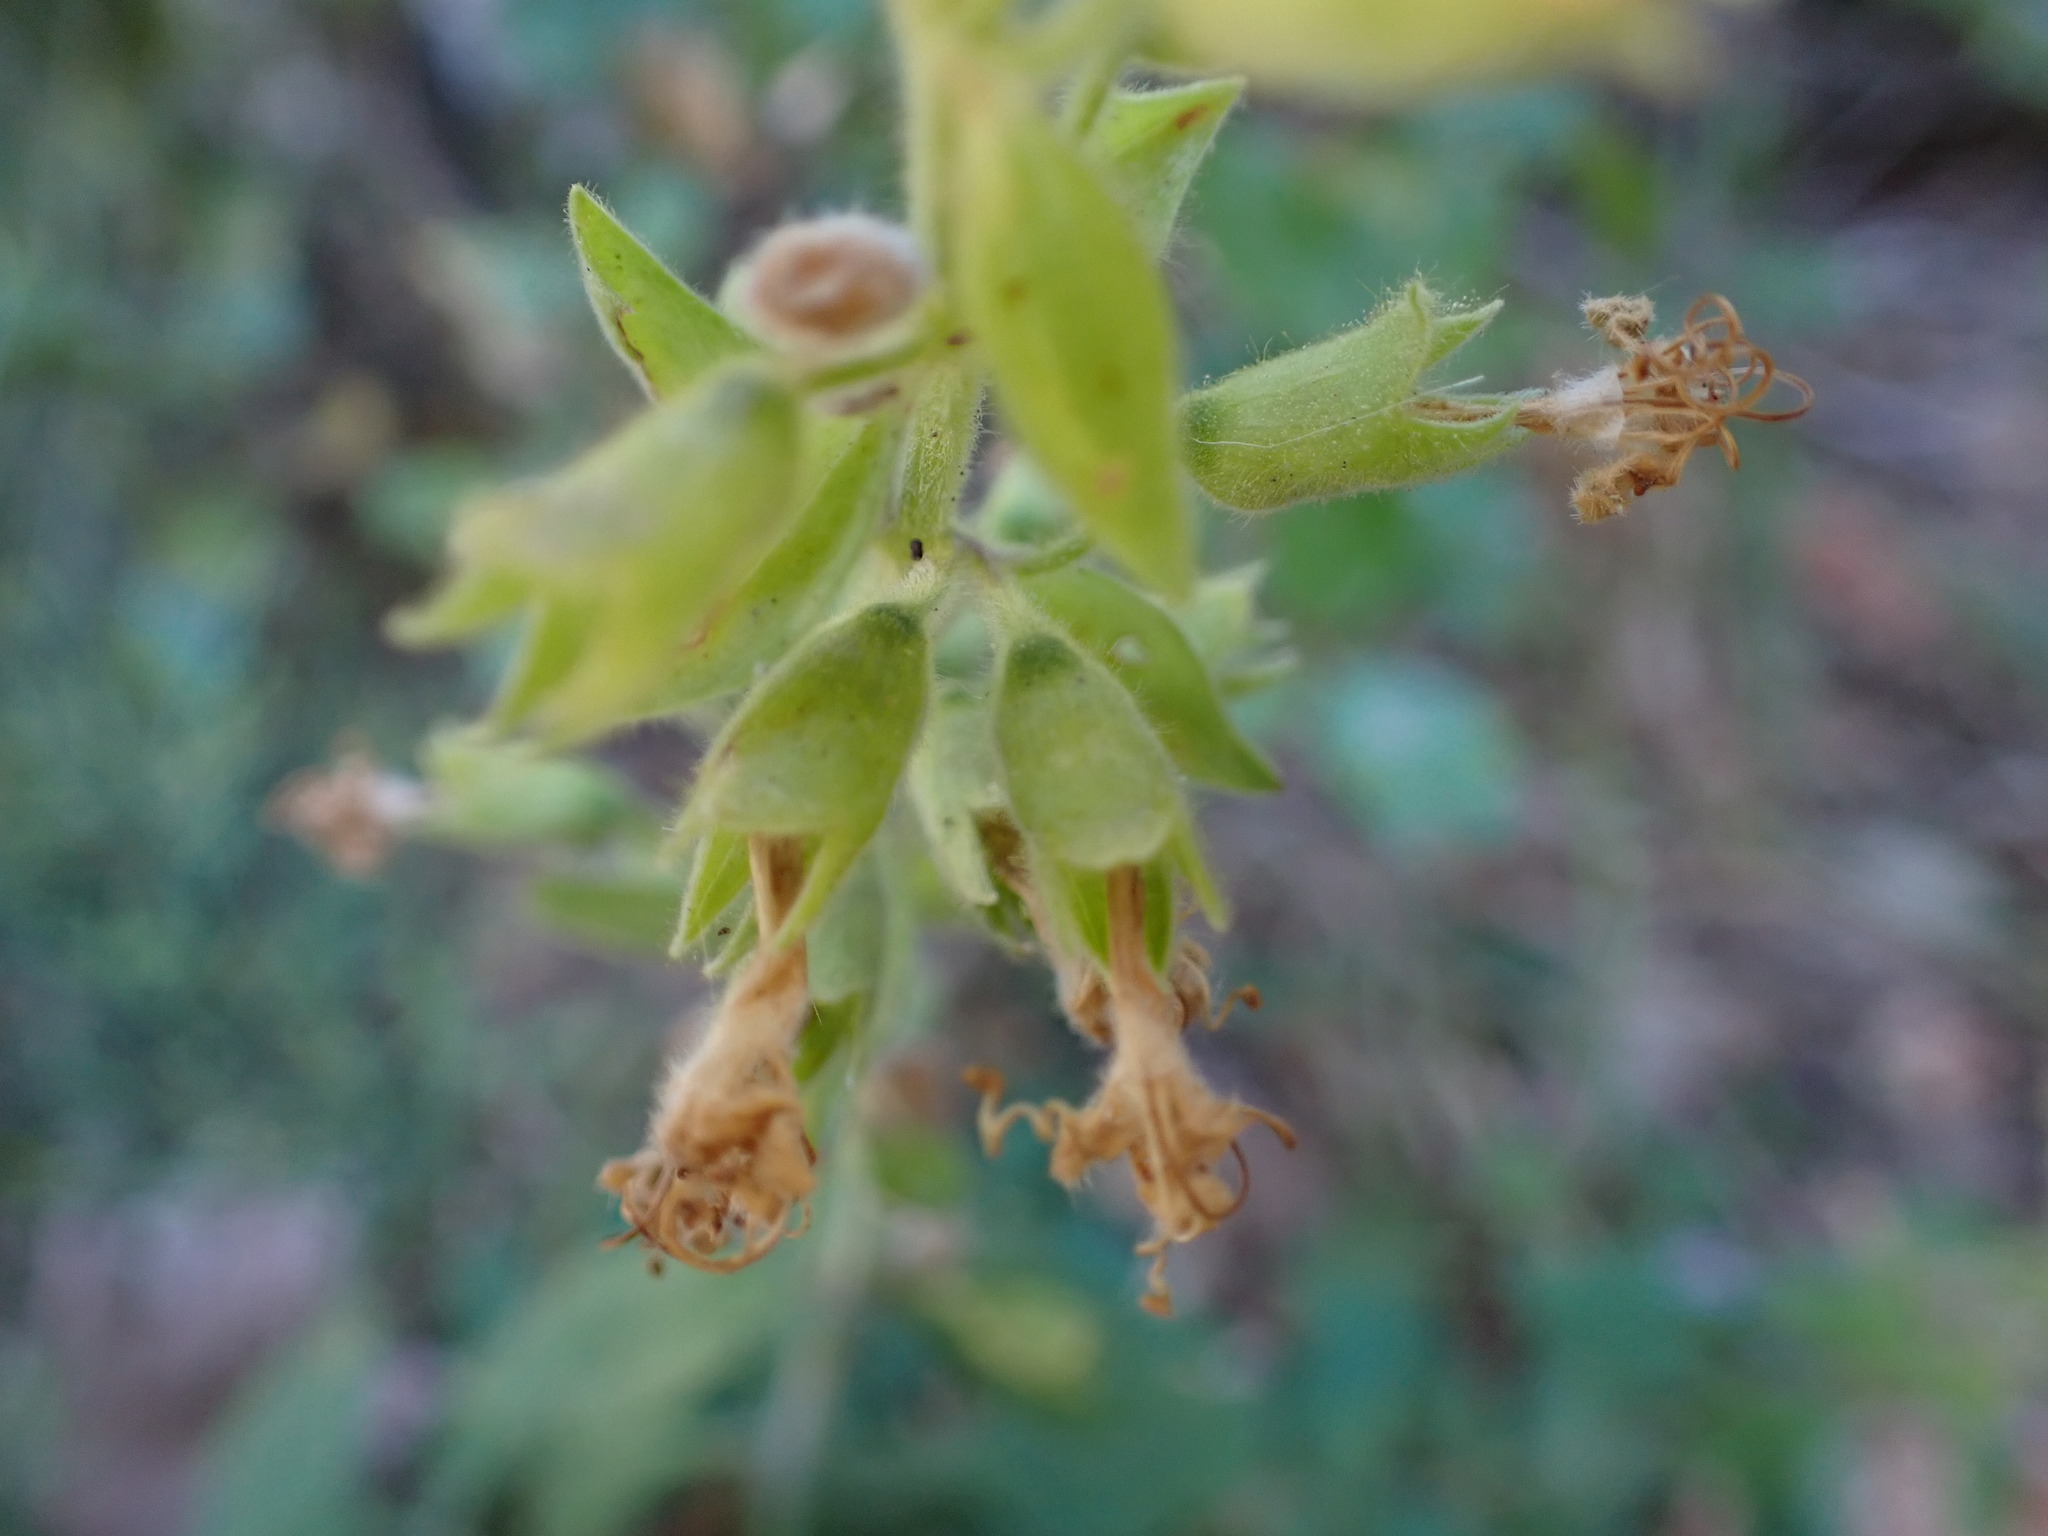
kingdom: Plantae
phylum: Tracheophyta
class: Magnoliopsida
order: Lamiales
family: Lamiaceae
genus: Teucrium
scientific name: Teucrium flavum
